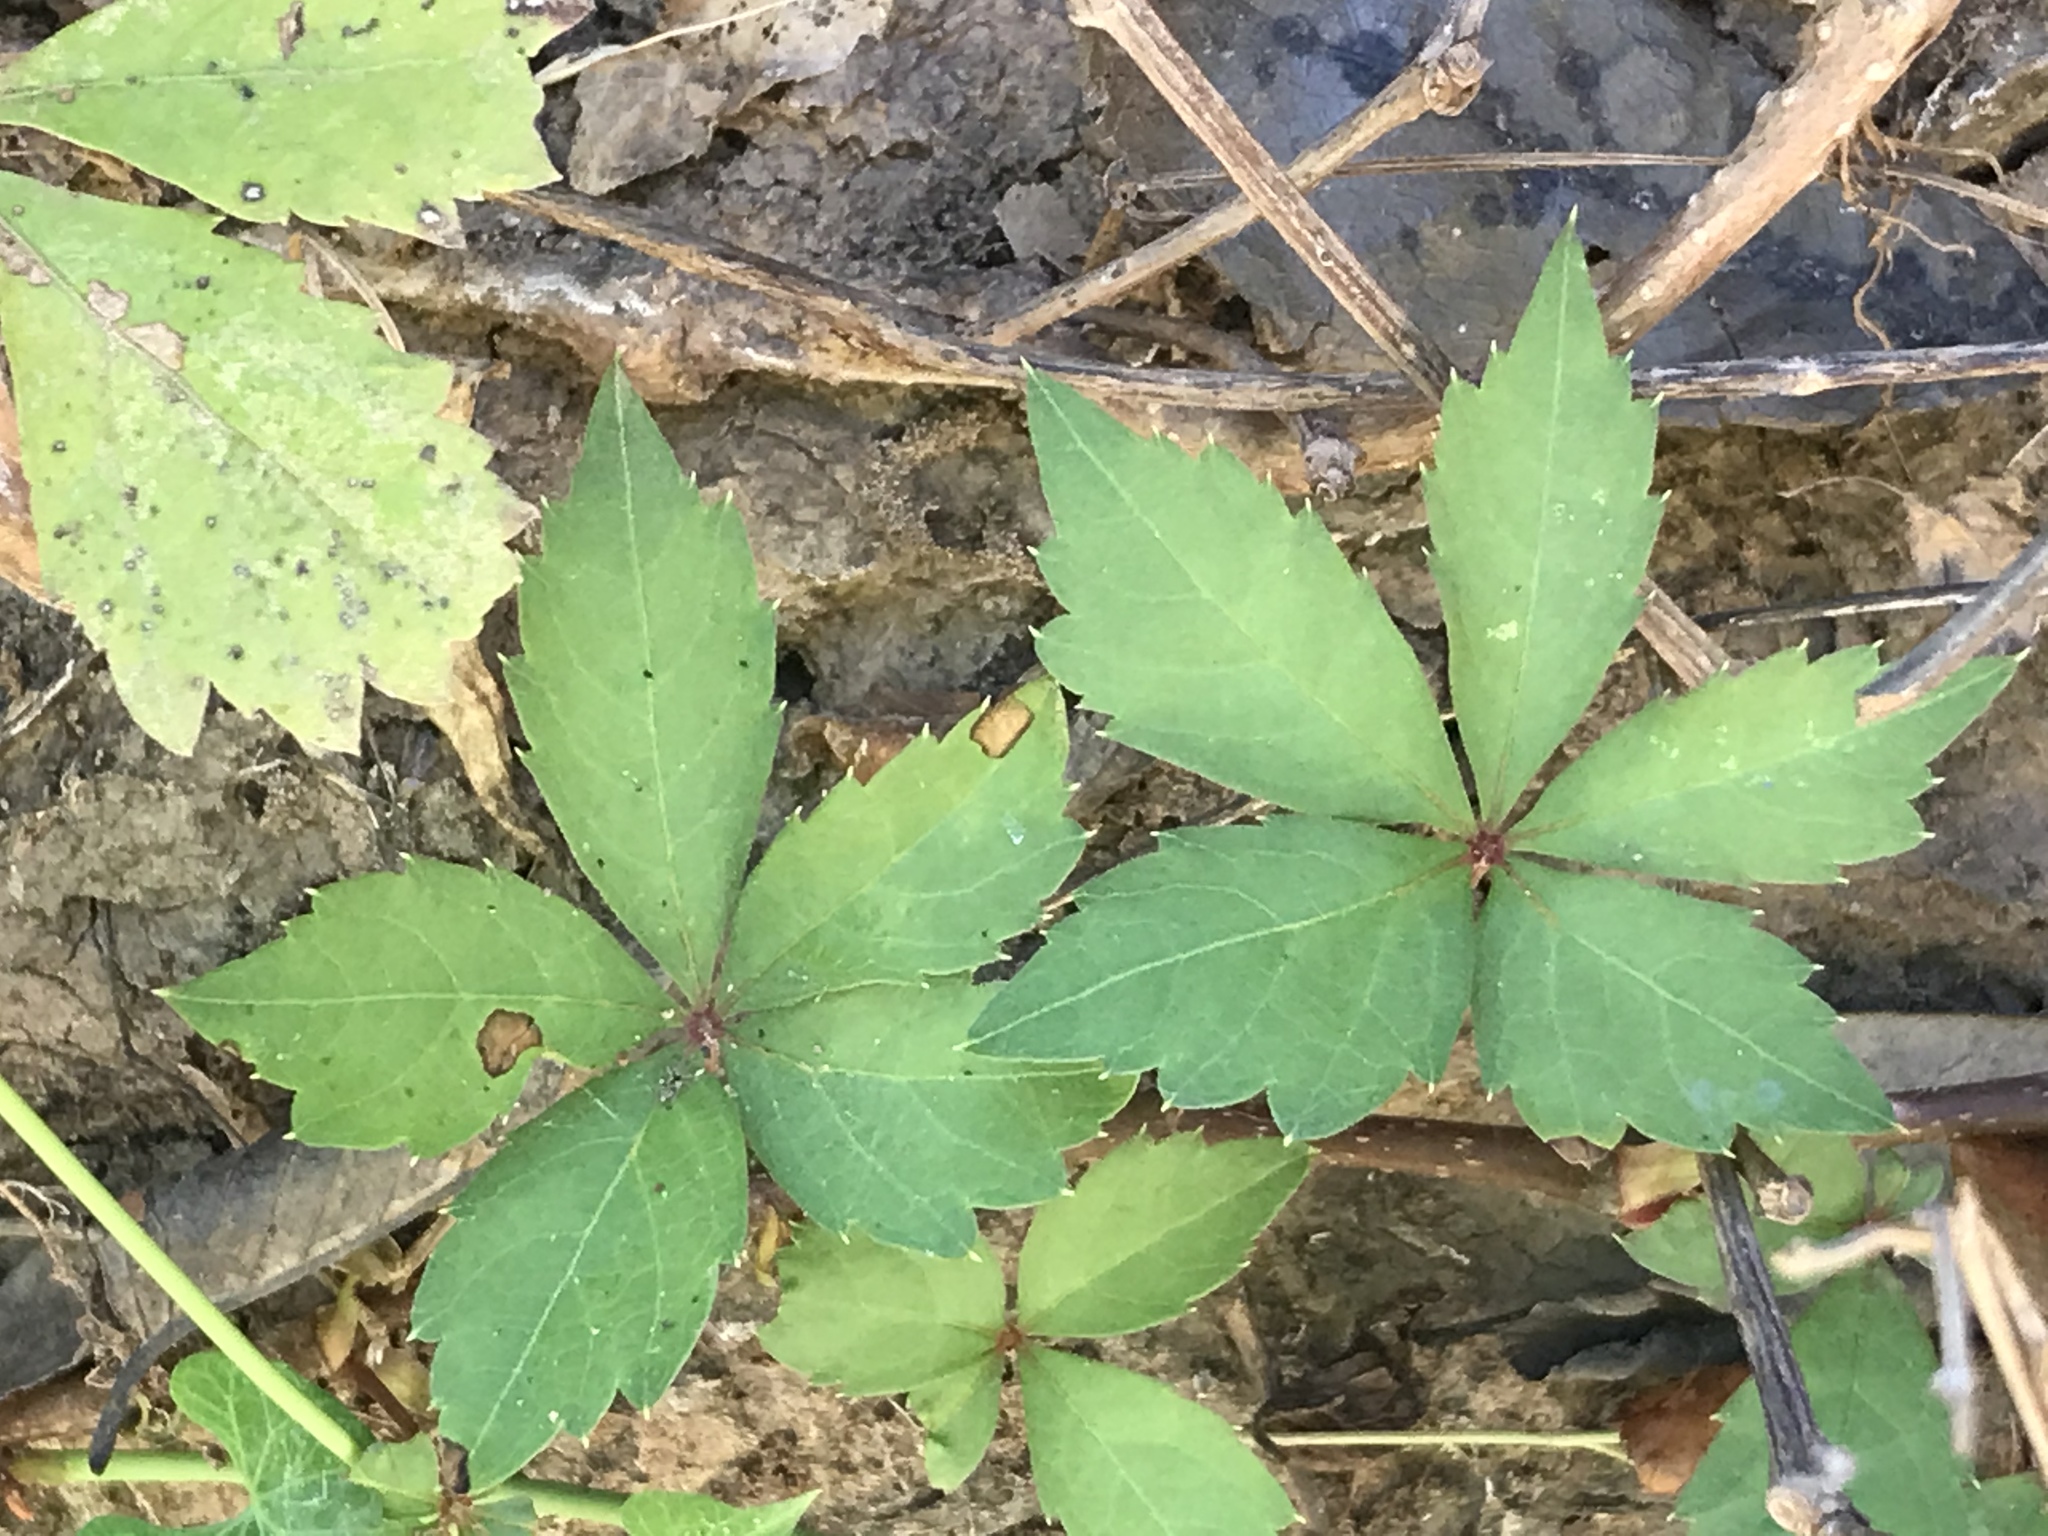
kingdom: Plantae
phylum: Tracheophyta
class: Magnoliopsida
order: Vitales
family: Vitaceae
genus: Parthenocissus
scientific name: Parthenocissus quinquefolia
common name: Virginia-creeper
